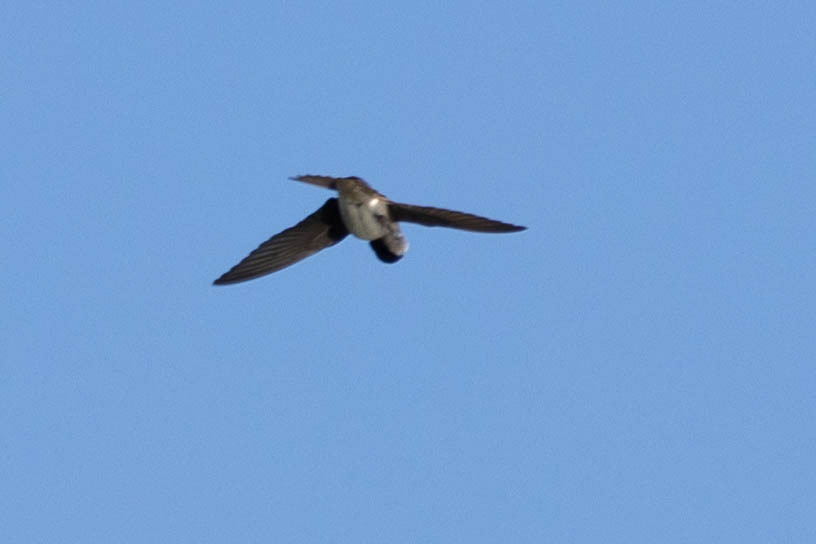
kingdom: Animalia
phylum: Chordata
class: Aves
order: Passeriformes
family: Hirundinidae
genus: Stelgidopteryx
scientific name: Stelgidopteryx serripennis
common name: Northern rough-winged swallow
